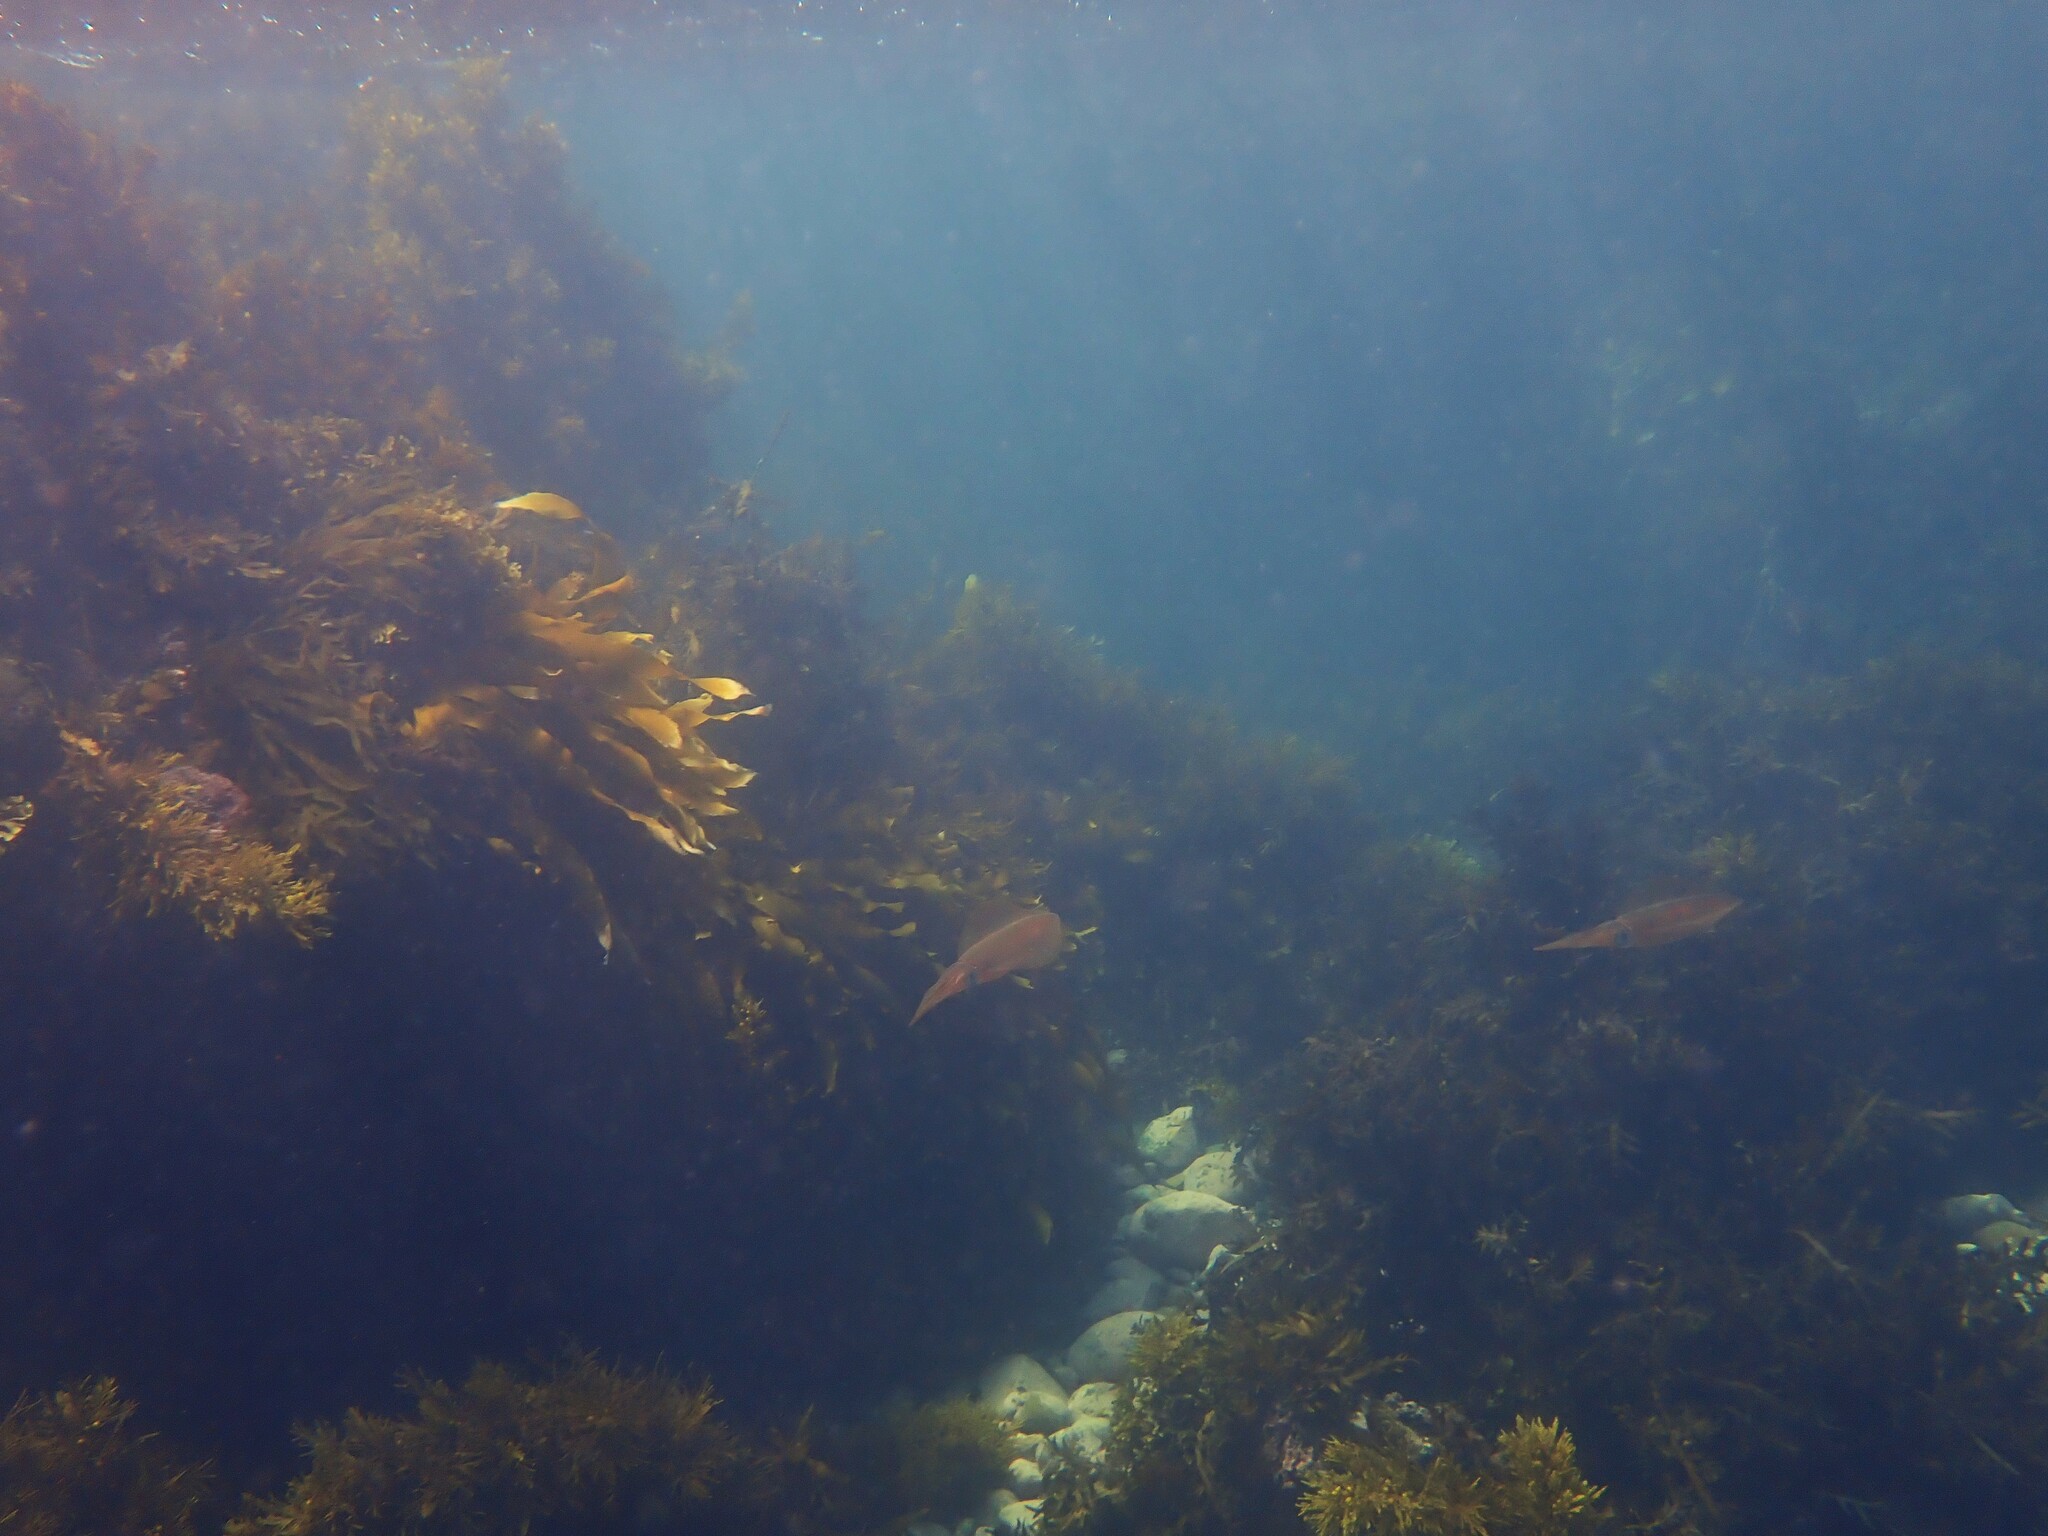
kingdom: Animalia
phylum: Mollusca
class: Cephalopoda
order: Myopsida
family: Loliginidae
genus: Sepioteuthis
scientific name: Sepioteuthis australis
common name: Southern reef squid
